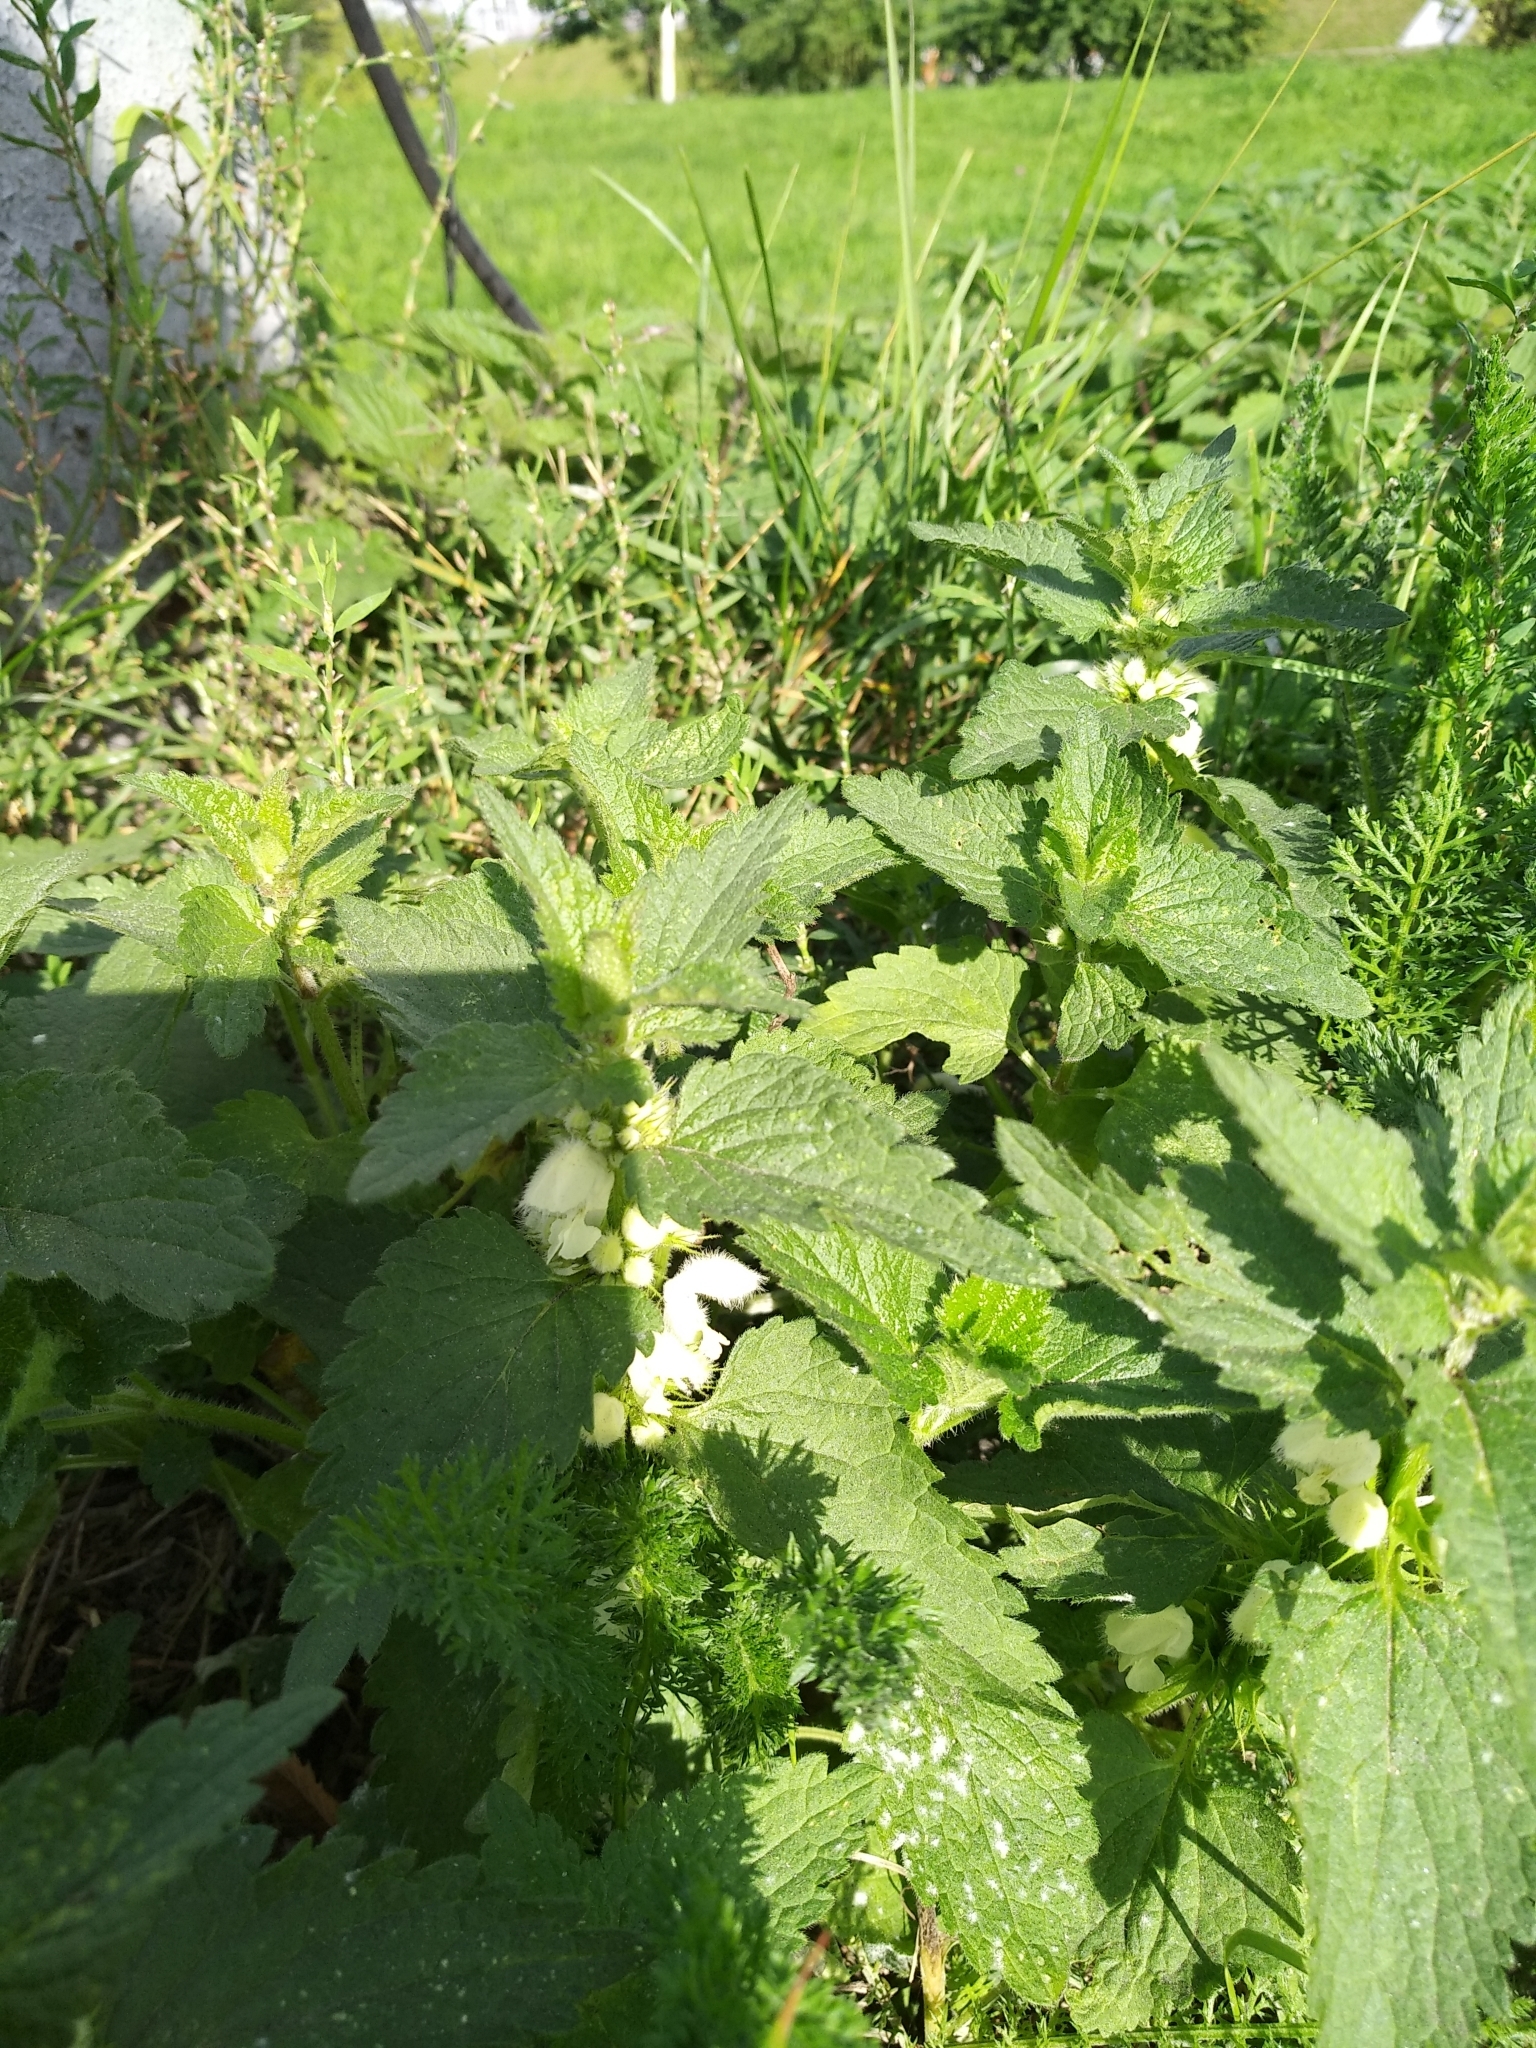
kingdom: Plantae
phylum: Tracheophyta
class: Magnoliopsida
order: Lamiales
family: Lamiaceae
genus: Lamium
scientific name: Lamium album
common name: White dead-nettle
